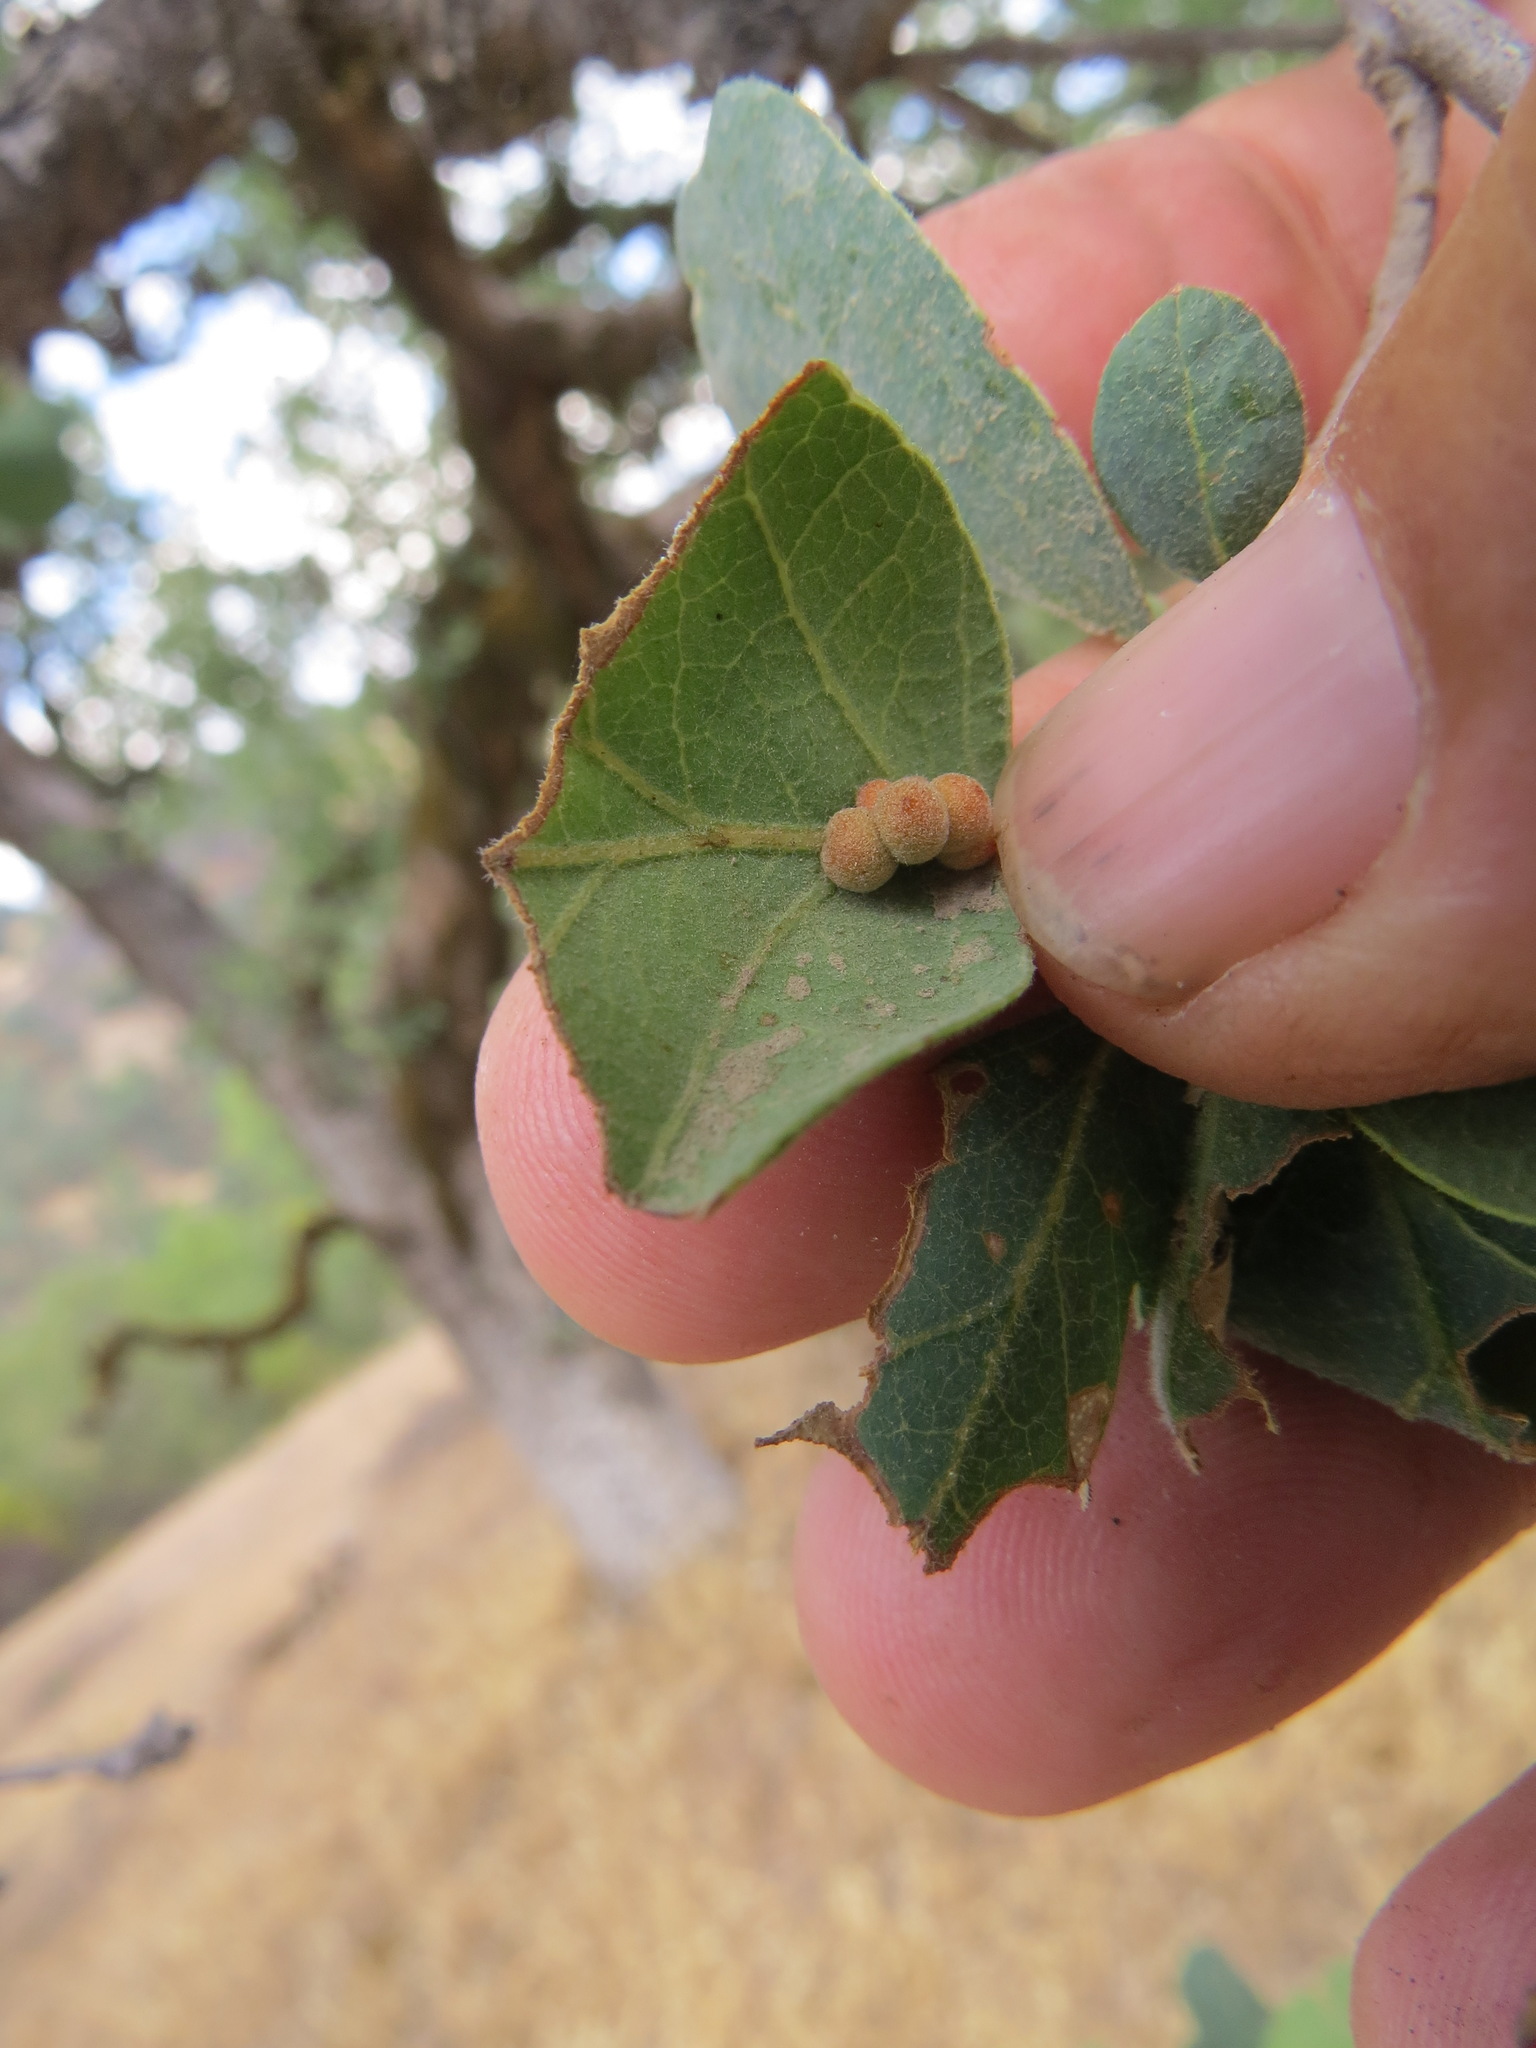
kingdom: Animalia
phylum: Arthropoda
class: Insecta
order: Hymenoptera
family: Cynipidae
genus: Andricus
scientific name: Andricus
